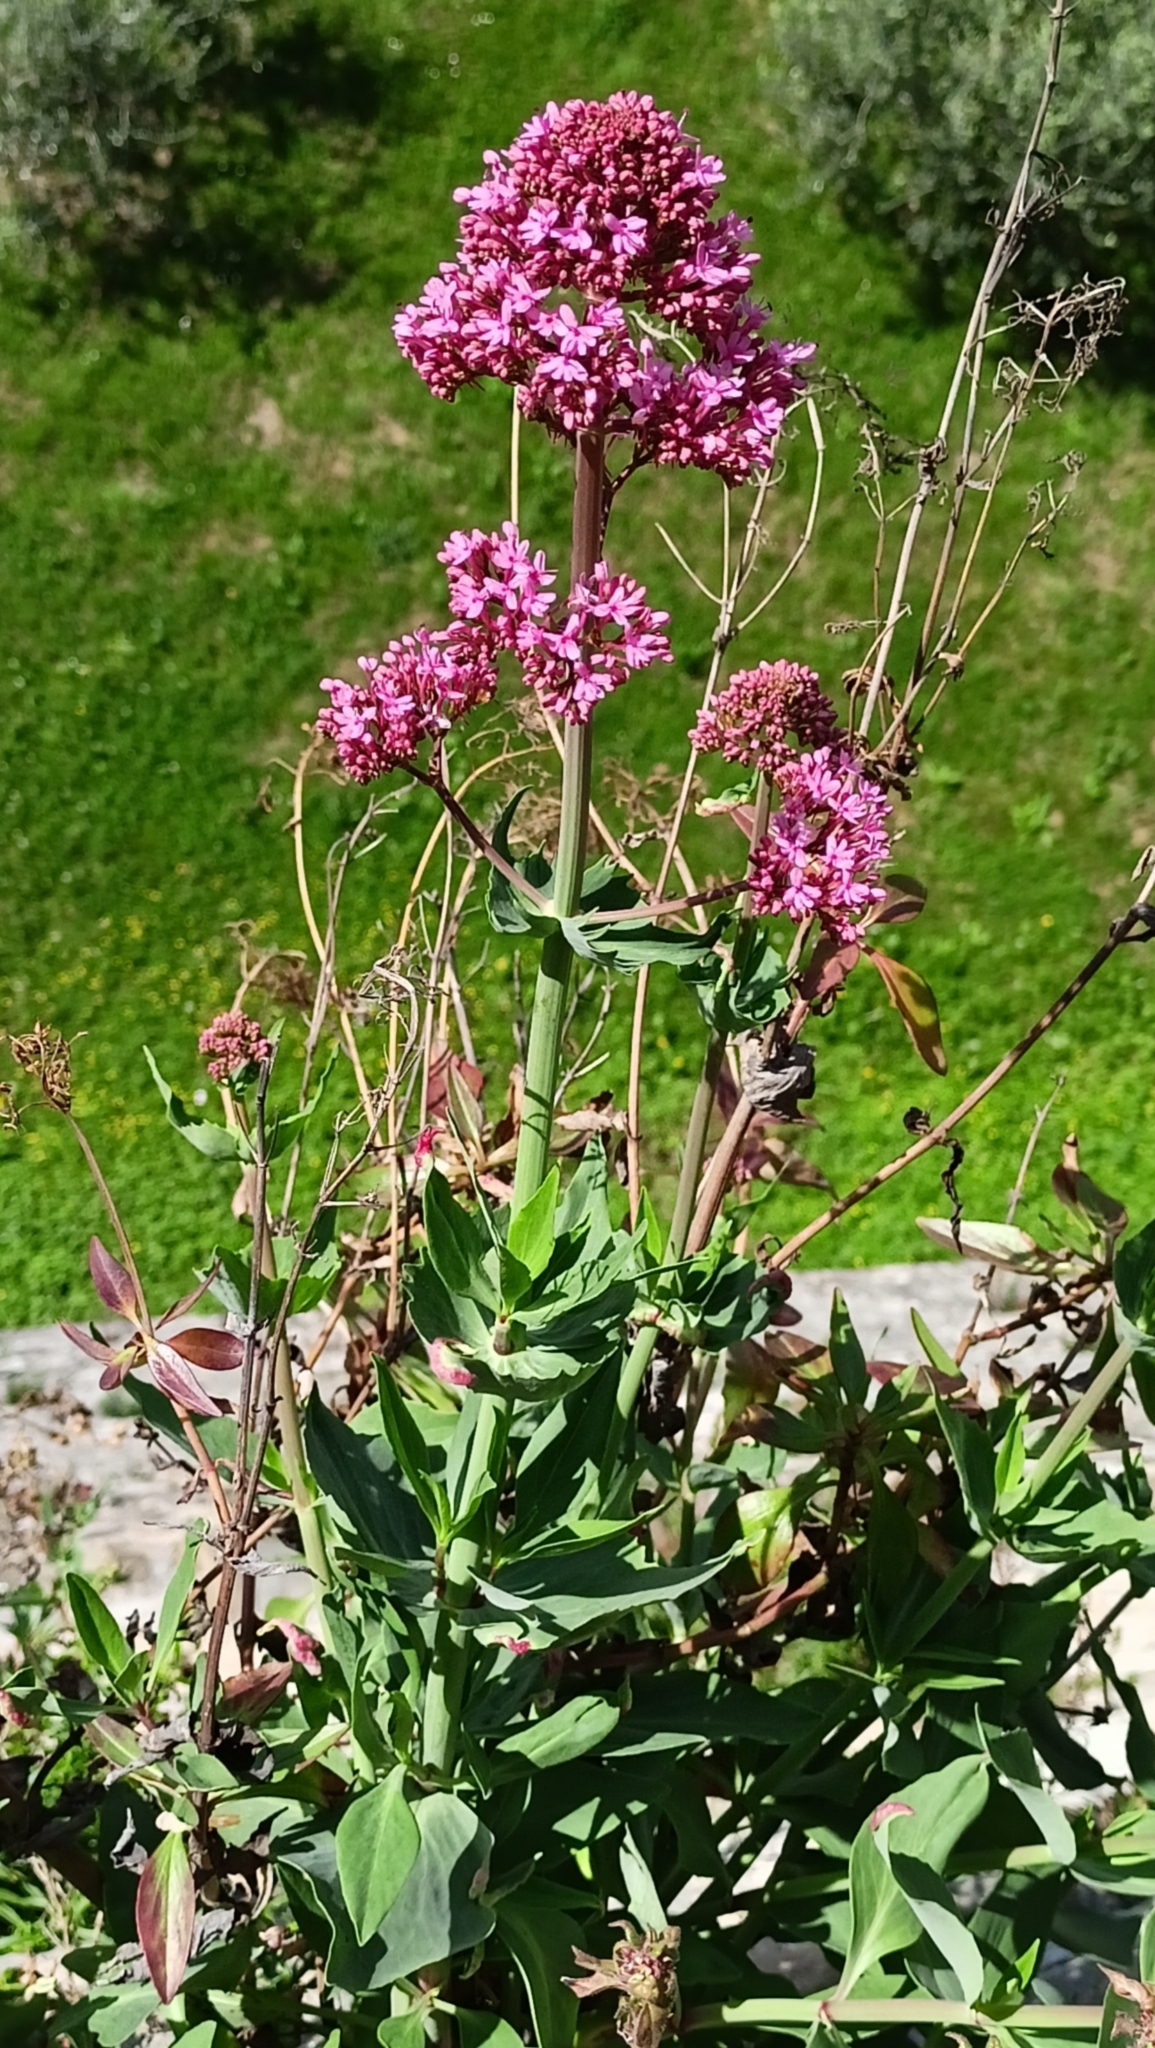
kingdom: Plantae
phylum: Tracheophyta
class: Magnoliopsida
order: Dipsacales
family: Caprifoliaceae
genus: Centranthus
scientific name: Centranthus ruber
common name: Red valerian
